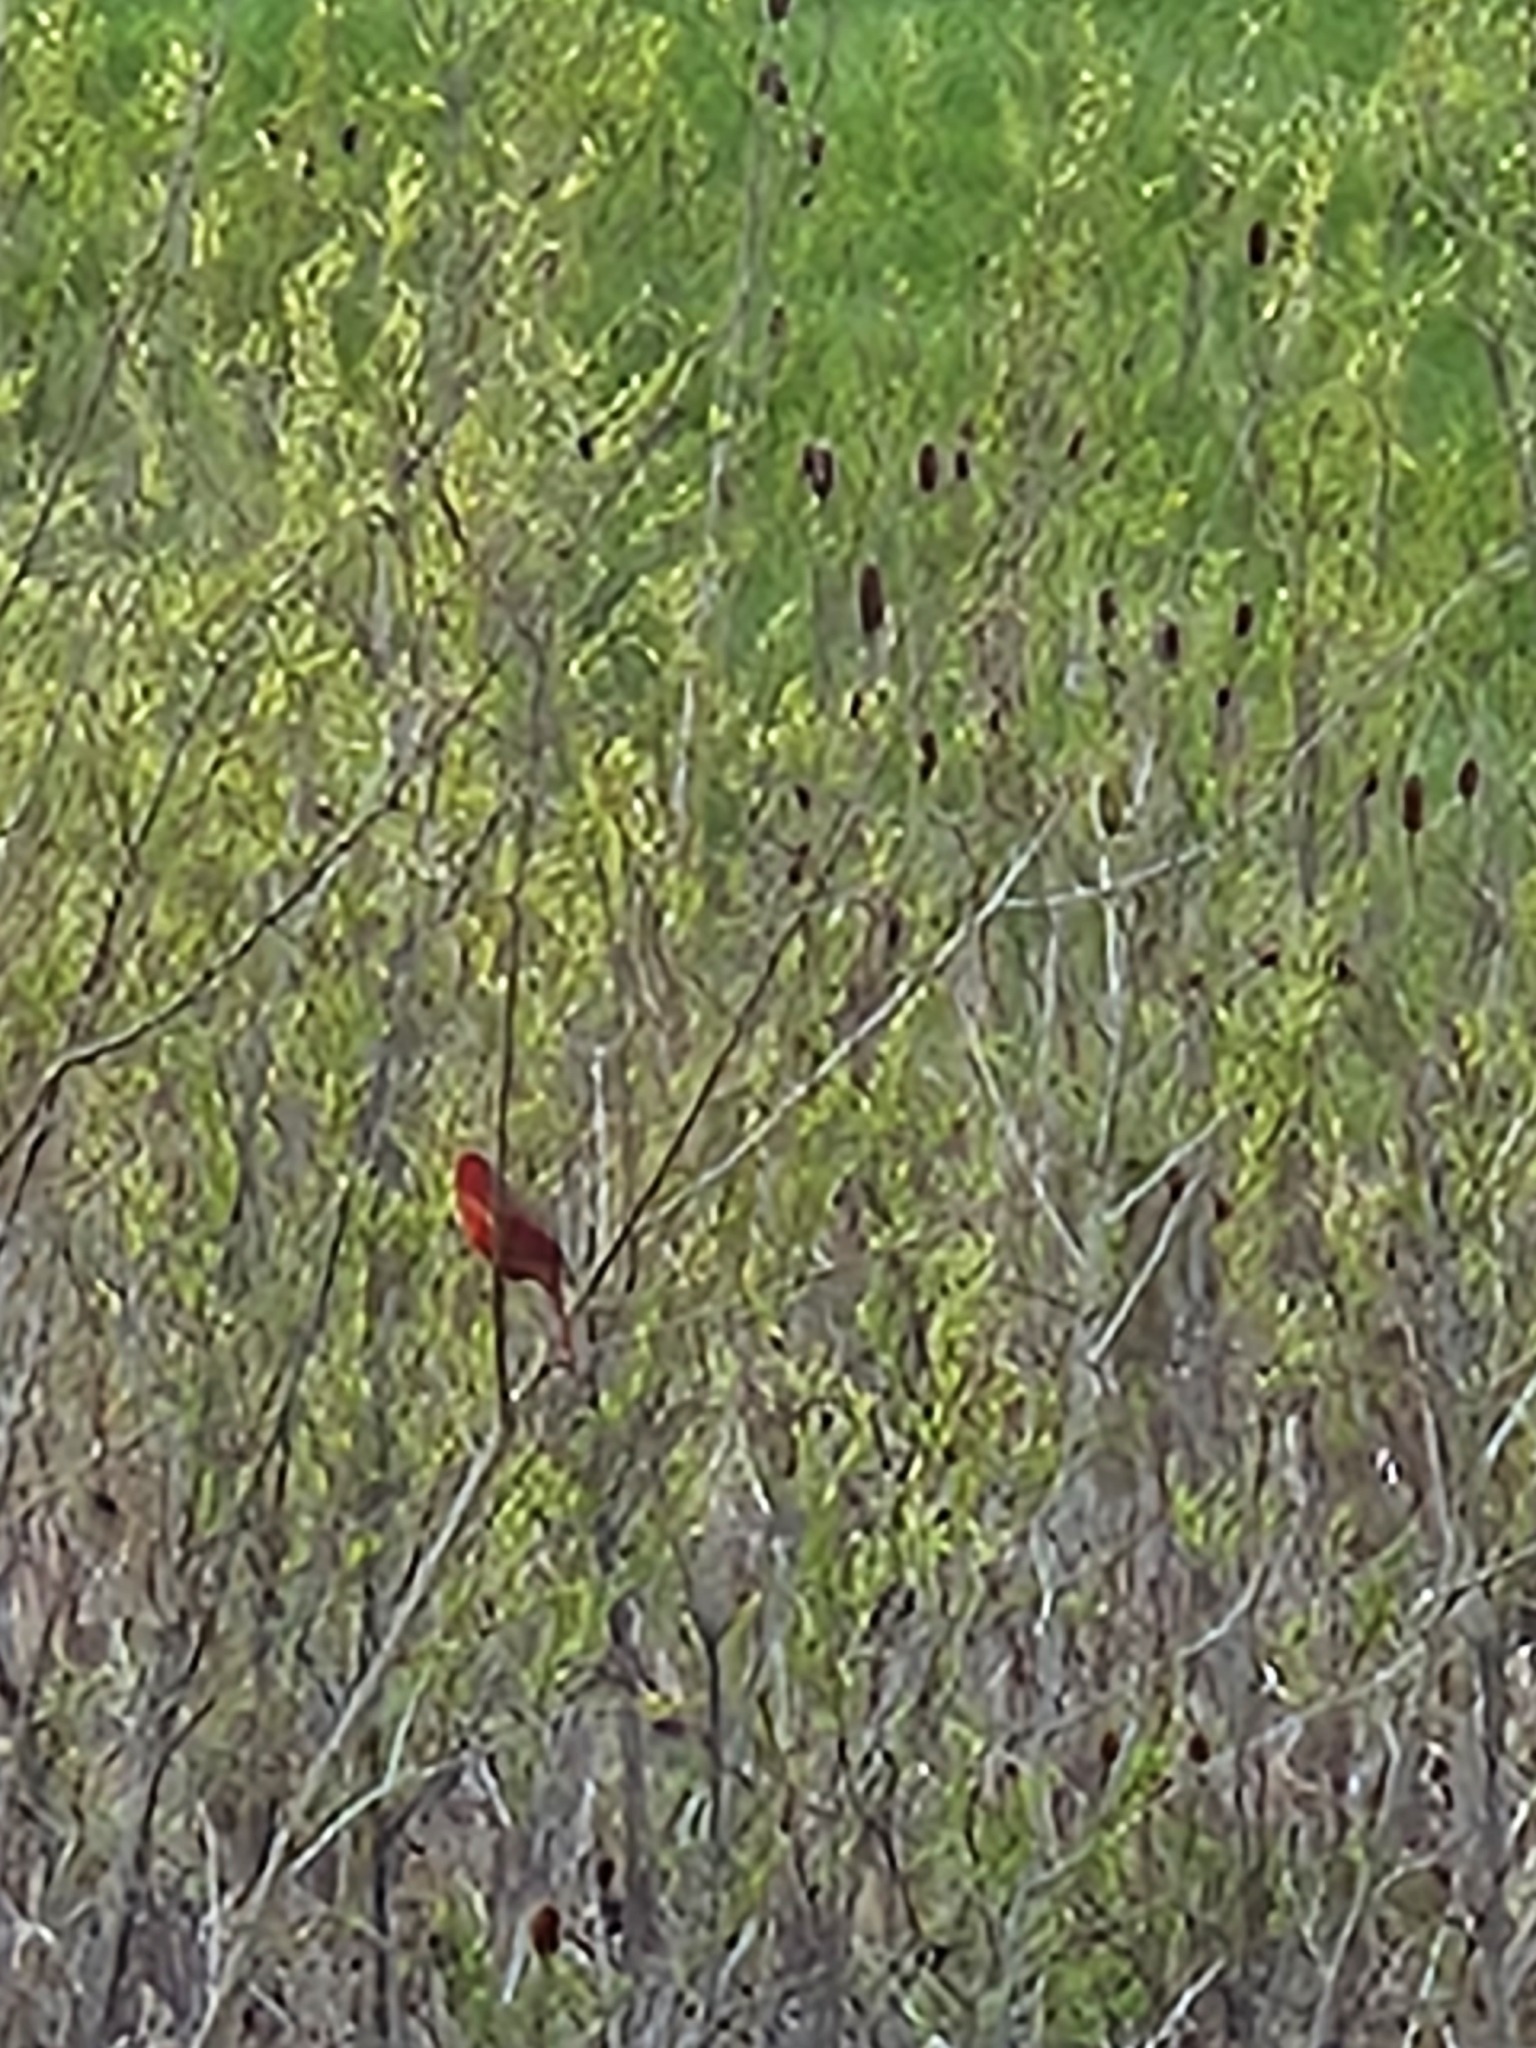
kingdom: Animalia
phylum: Chordata
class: Aves
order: Passeriformes
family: Cardinalidae
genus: Cardinalis
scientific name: Cardinalis cardinalis
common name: Northern cardinal
